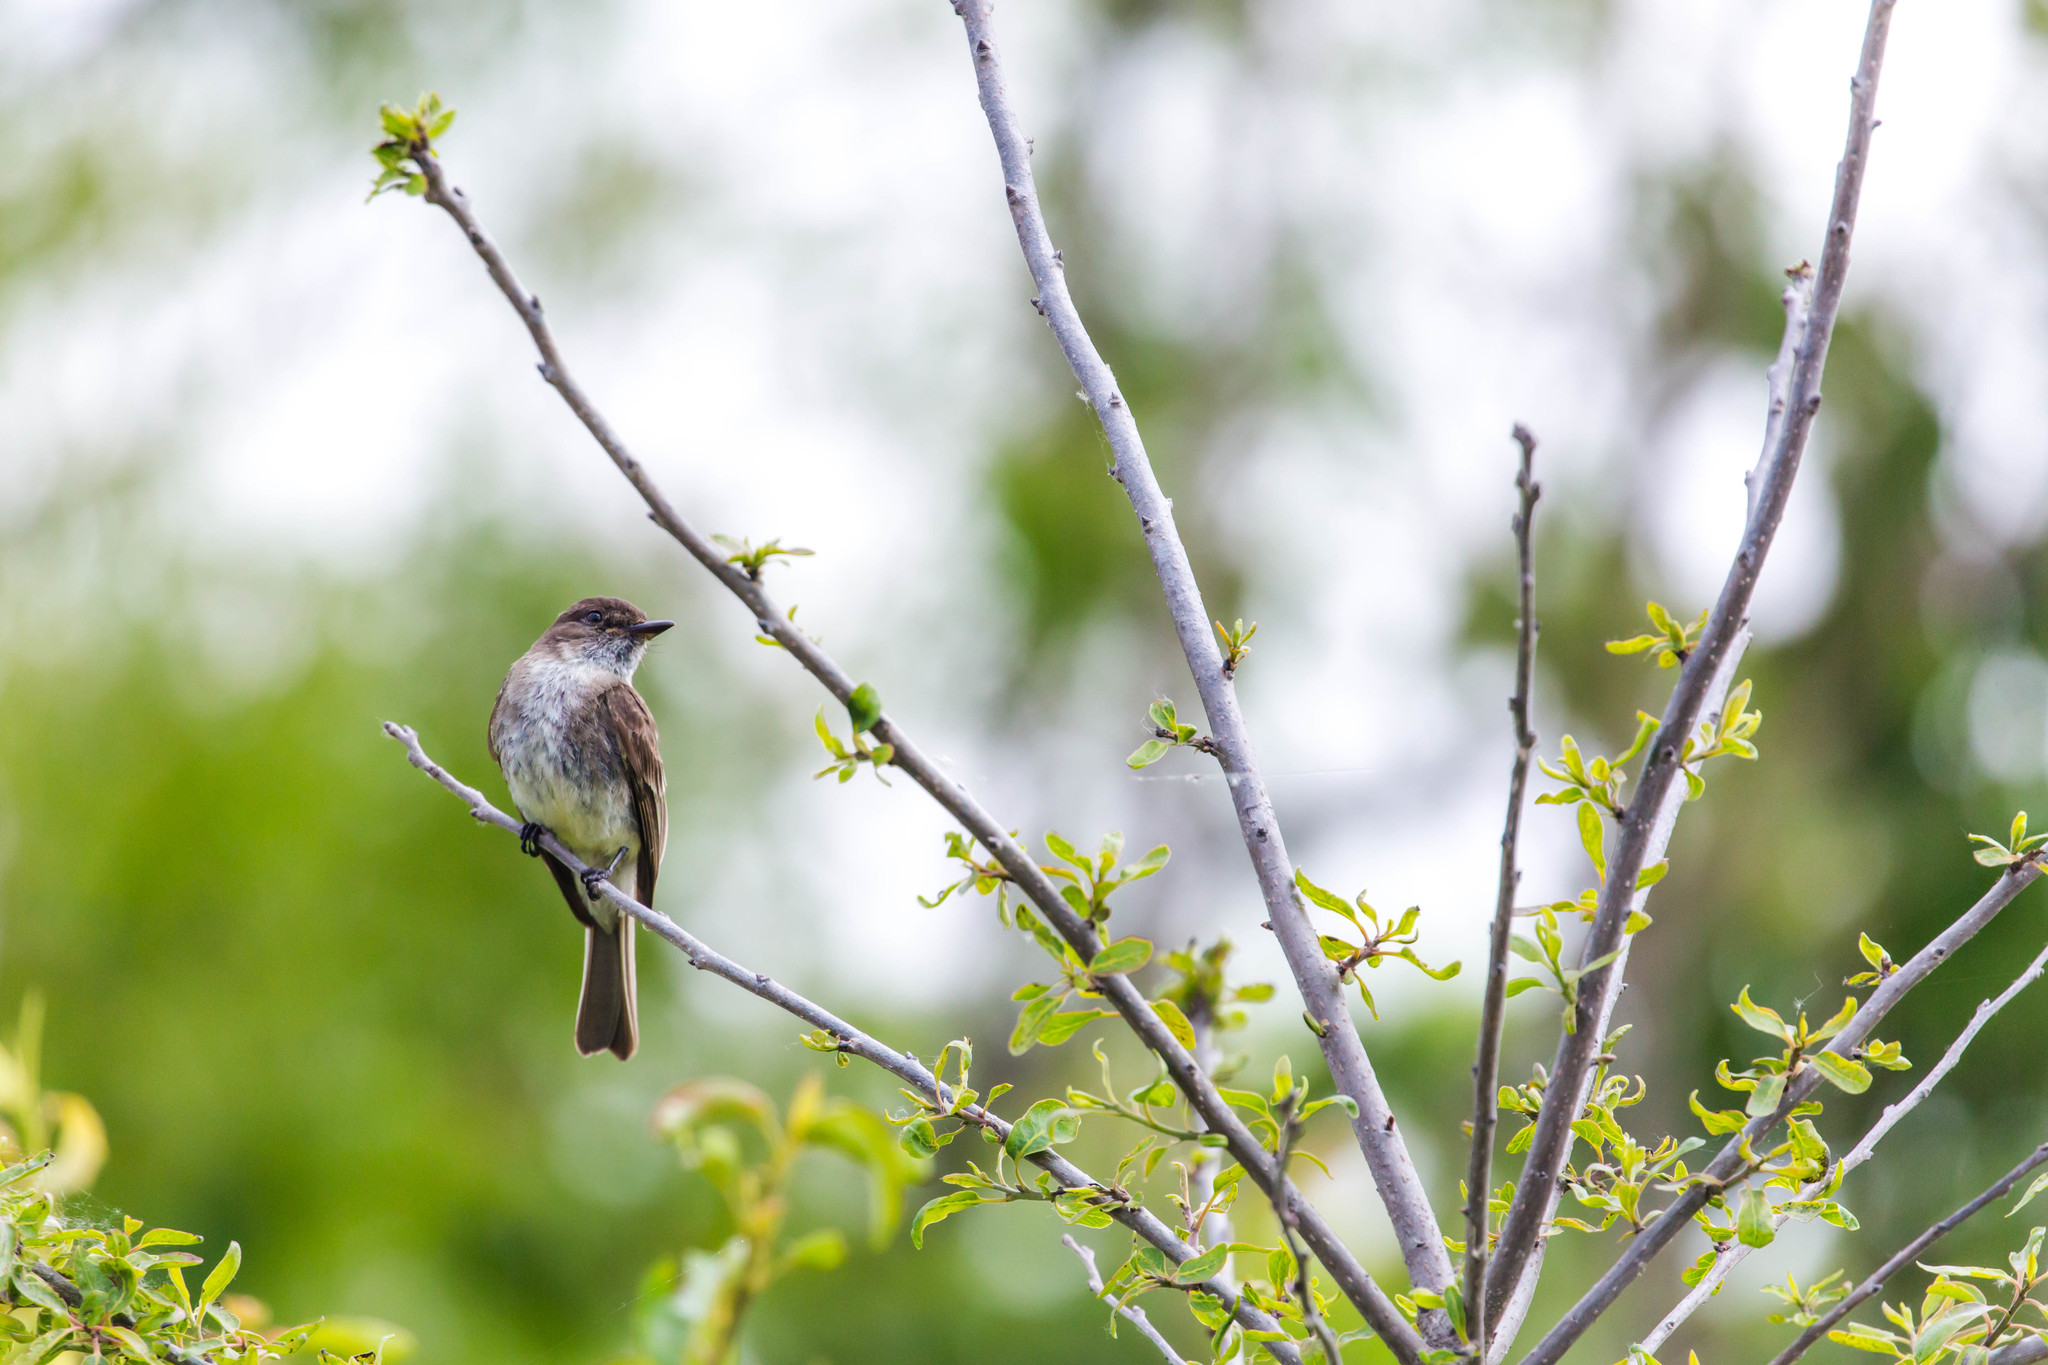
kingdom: Animalia
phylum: Chordata
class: Aves
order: Passeriformes
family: Tyrannidae
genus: Sayornis
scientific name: Sayornis phoebe
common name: Eastern phoebe
